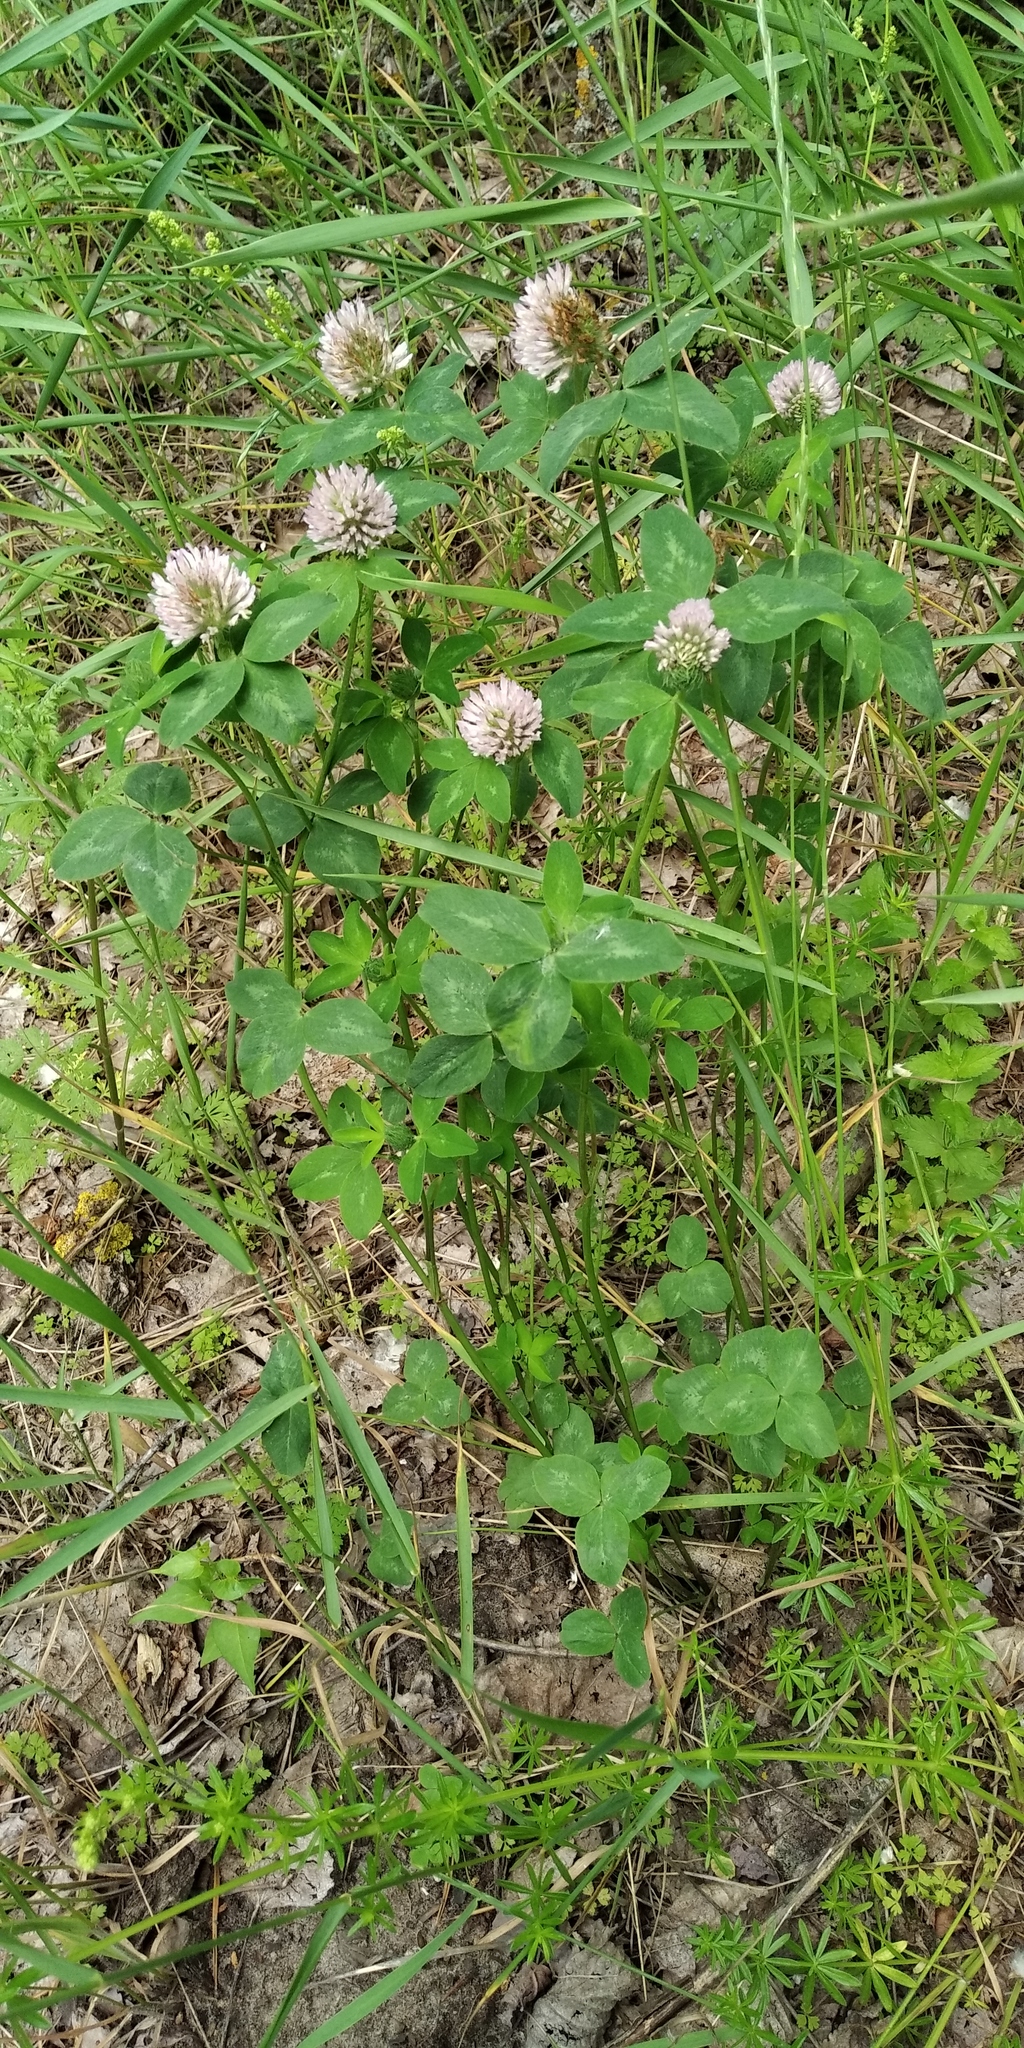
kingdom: Plantae
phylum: Tracheophyta
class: Magnoliopsida
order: Fabales
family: Fabaceae
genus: Trifolium
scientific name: Trifolium pratense
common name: Red clover
